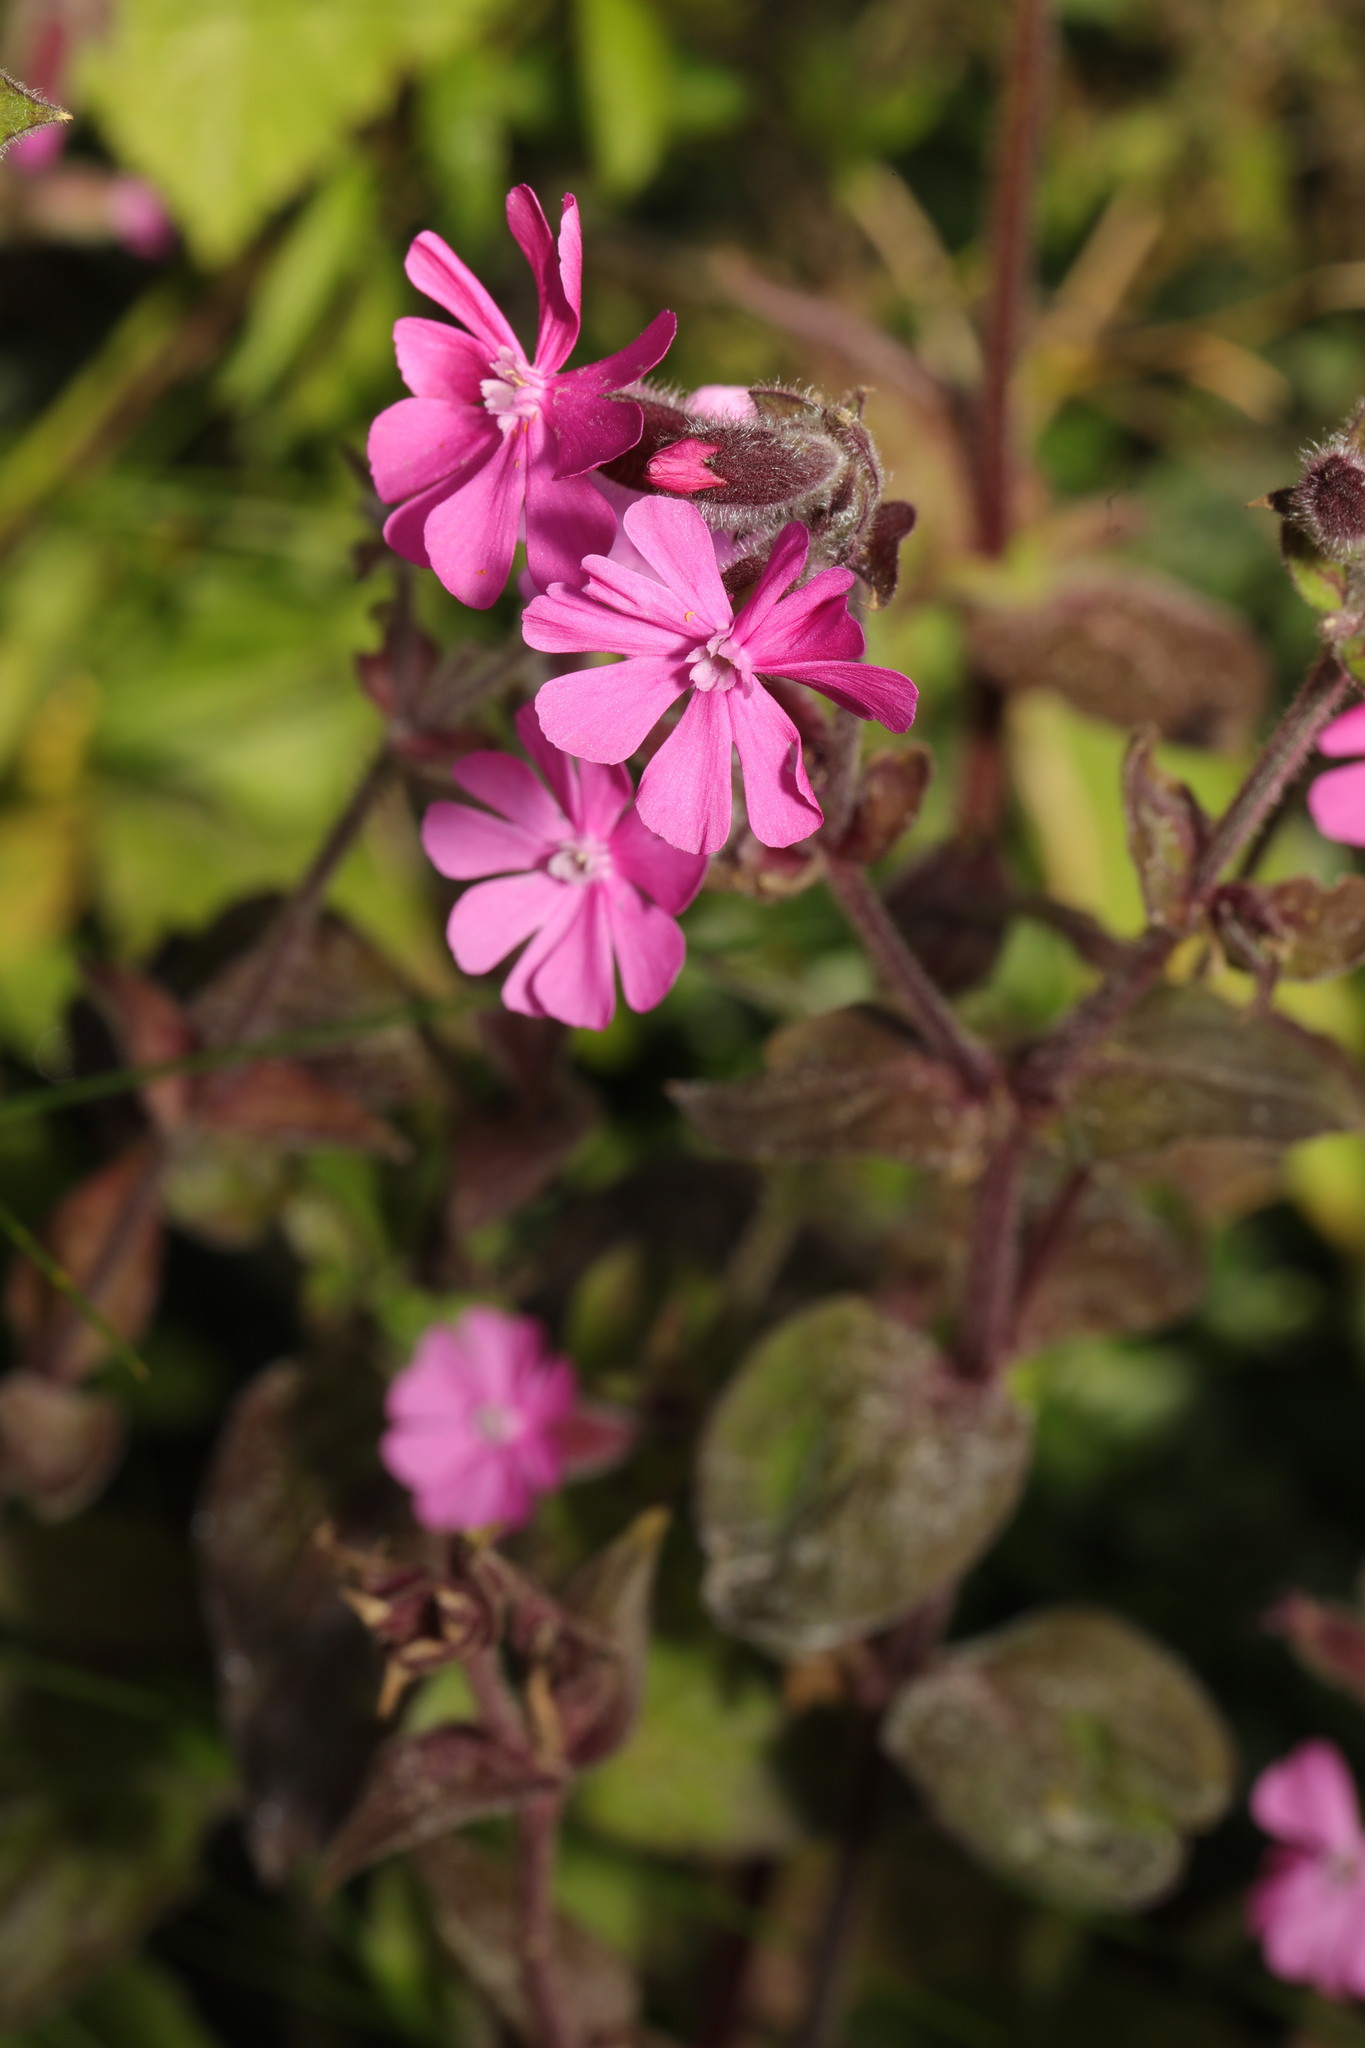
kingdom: Plantae
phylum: Tracheophyta
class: Magnoliopsida
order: Caryophyllales
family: Caryophyllaceae
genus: Silene
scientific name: Silene dioica
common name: Red campion
